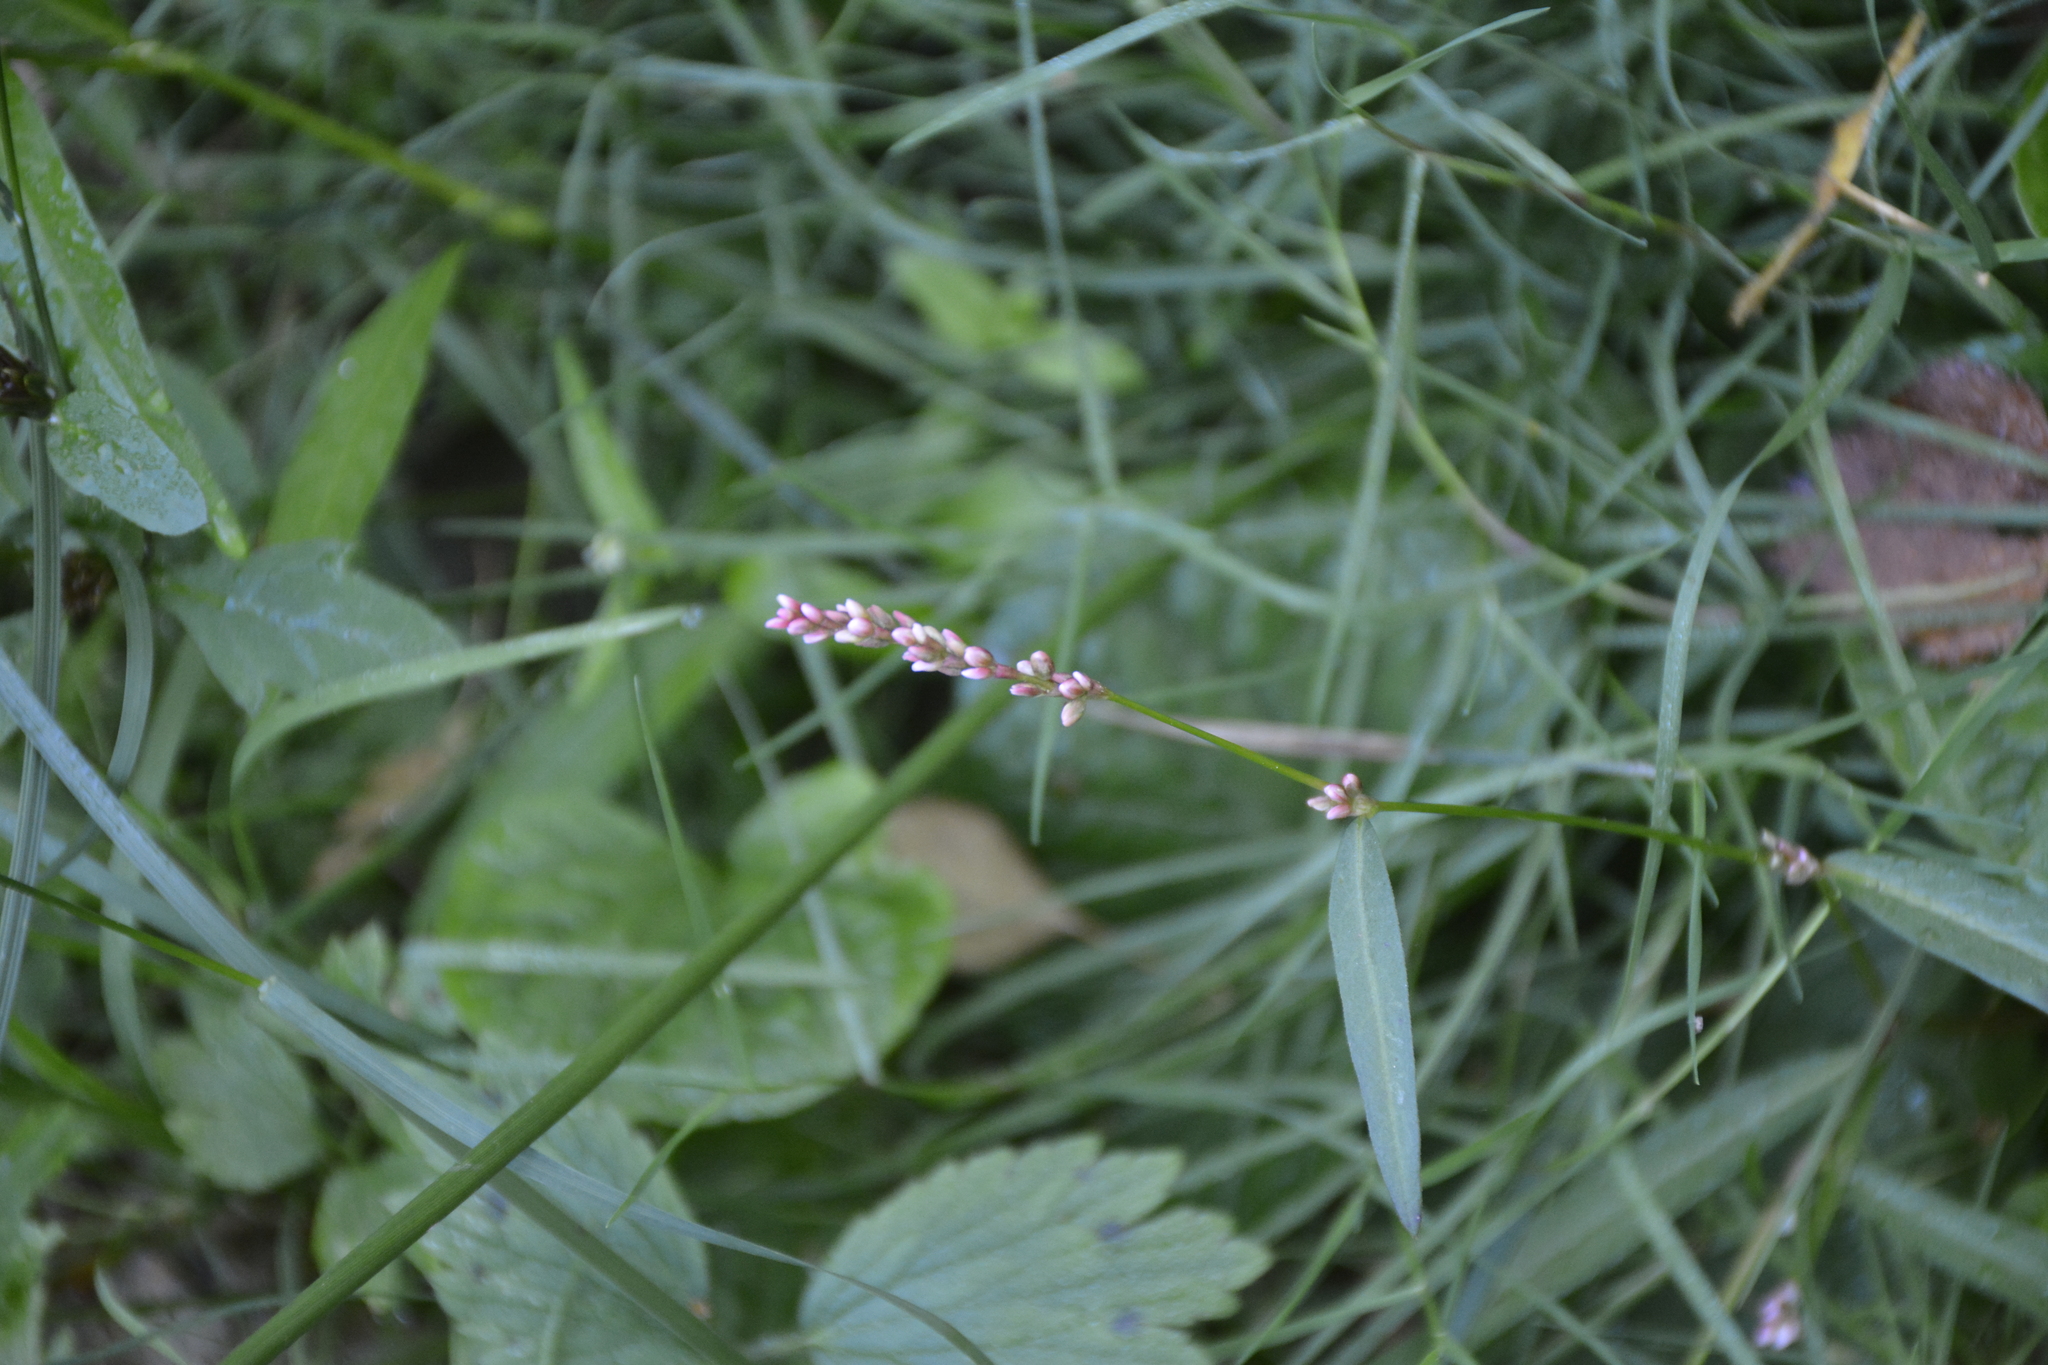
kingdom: Plantae
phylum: Tracheophyta
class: Magnoliopsida
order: Caryophyllales
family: Polygonaceae
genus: Persicaria
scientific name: Persicaria minor
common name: Small water-pepper
